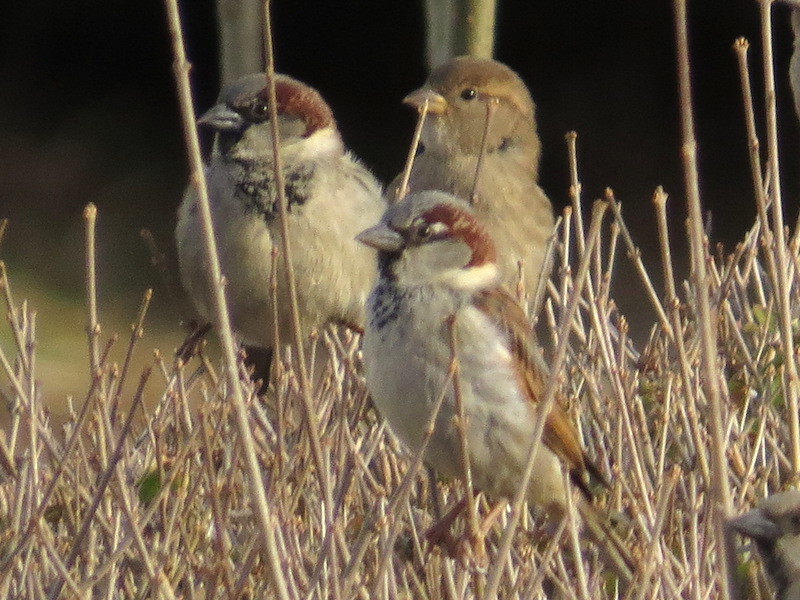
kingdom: Animalia
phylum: Chordata
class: Aves
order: Passeriformes
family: Passeridae
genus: Passer
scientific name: Passer domesticus
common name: House sparrow
